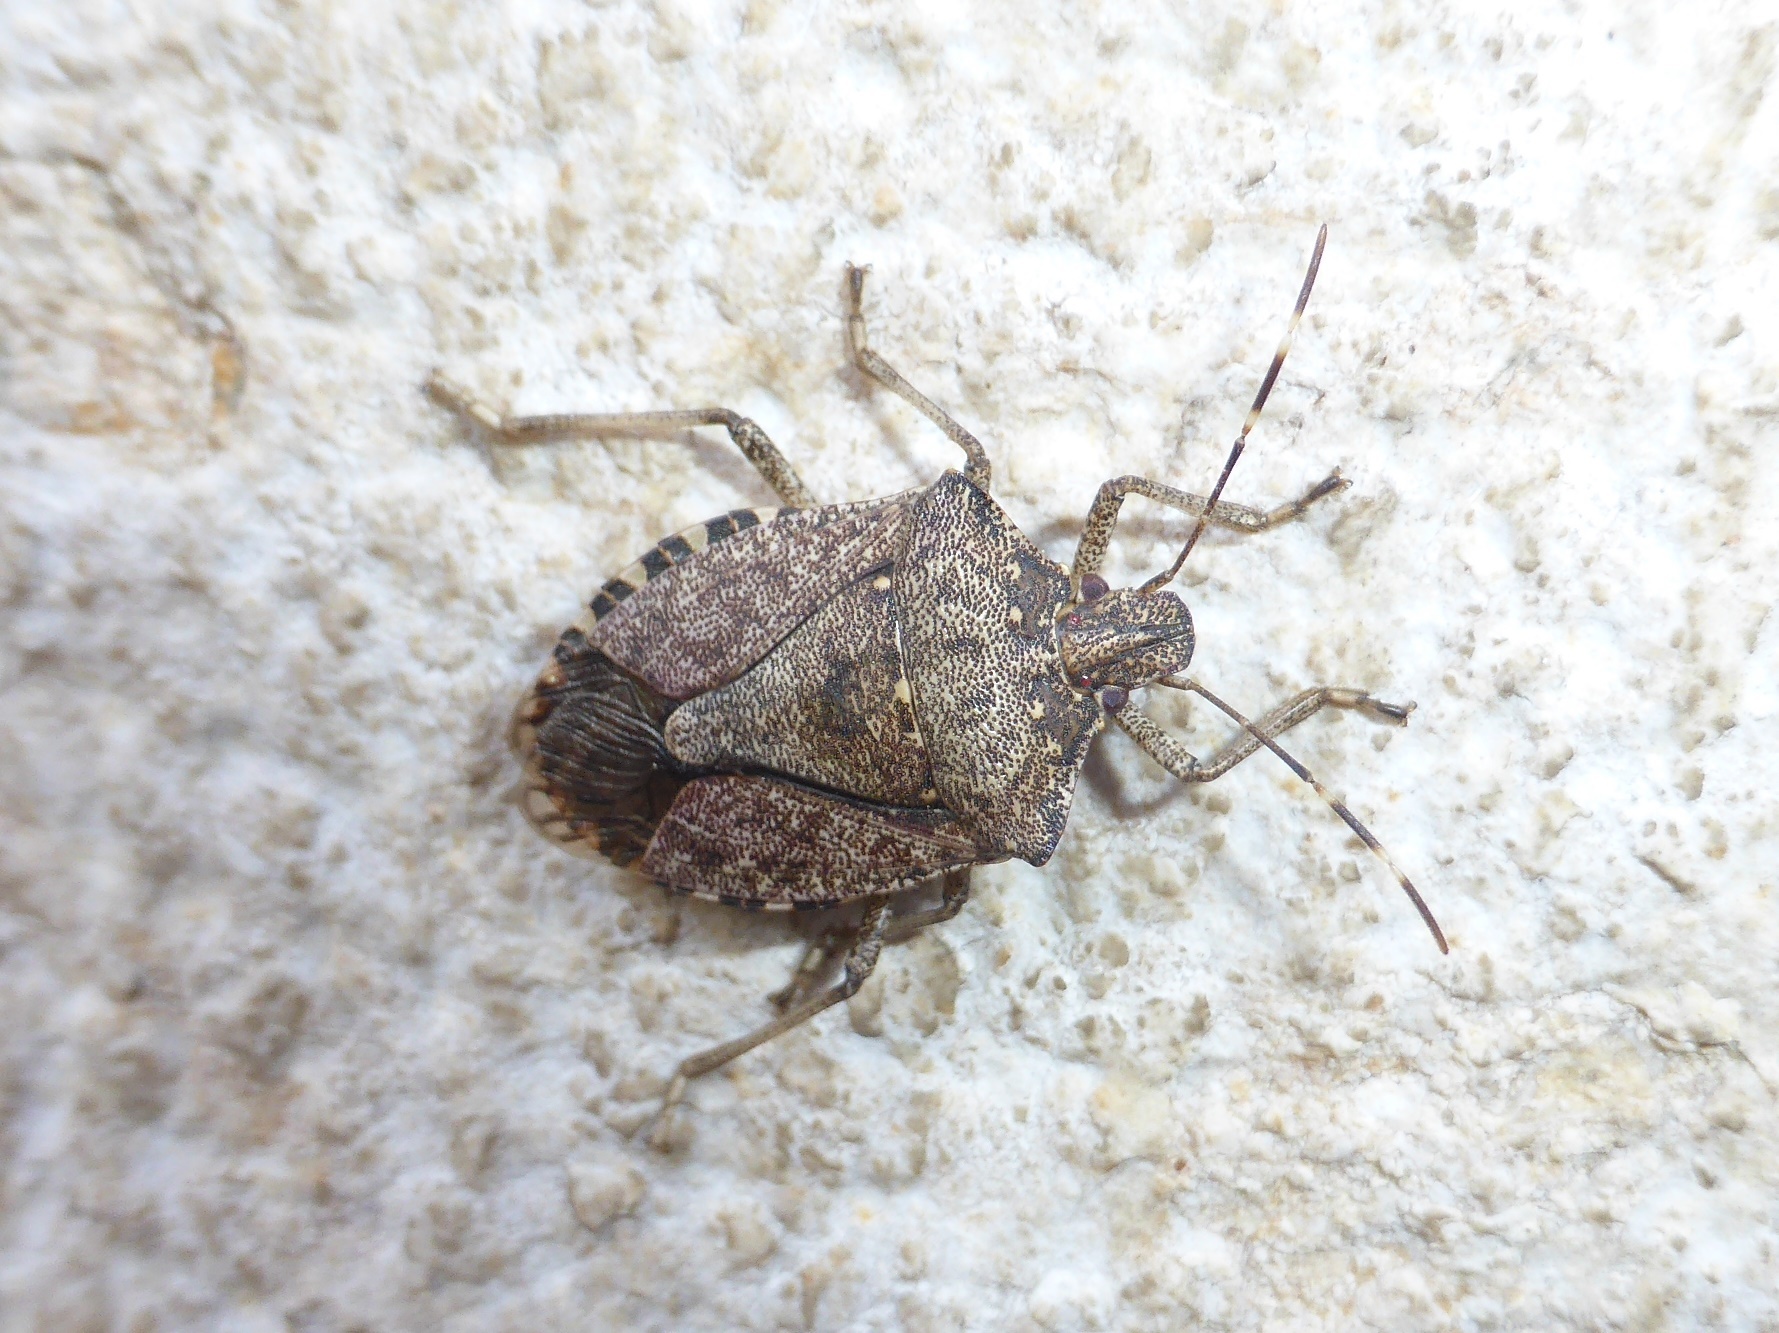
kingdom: Animalia
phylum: Arthropoda
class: Insecta
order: Hemiptera
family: Pentatomidae
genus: Halyomorpha
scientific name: Halyomorpha halys
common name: Brown marmorated stink bug
